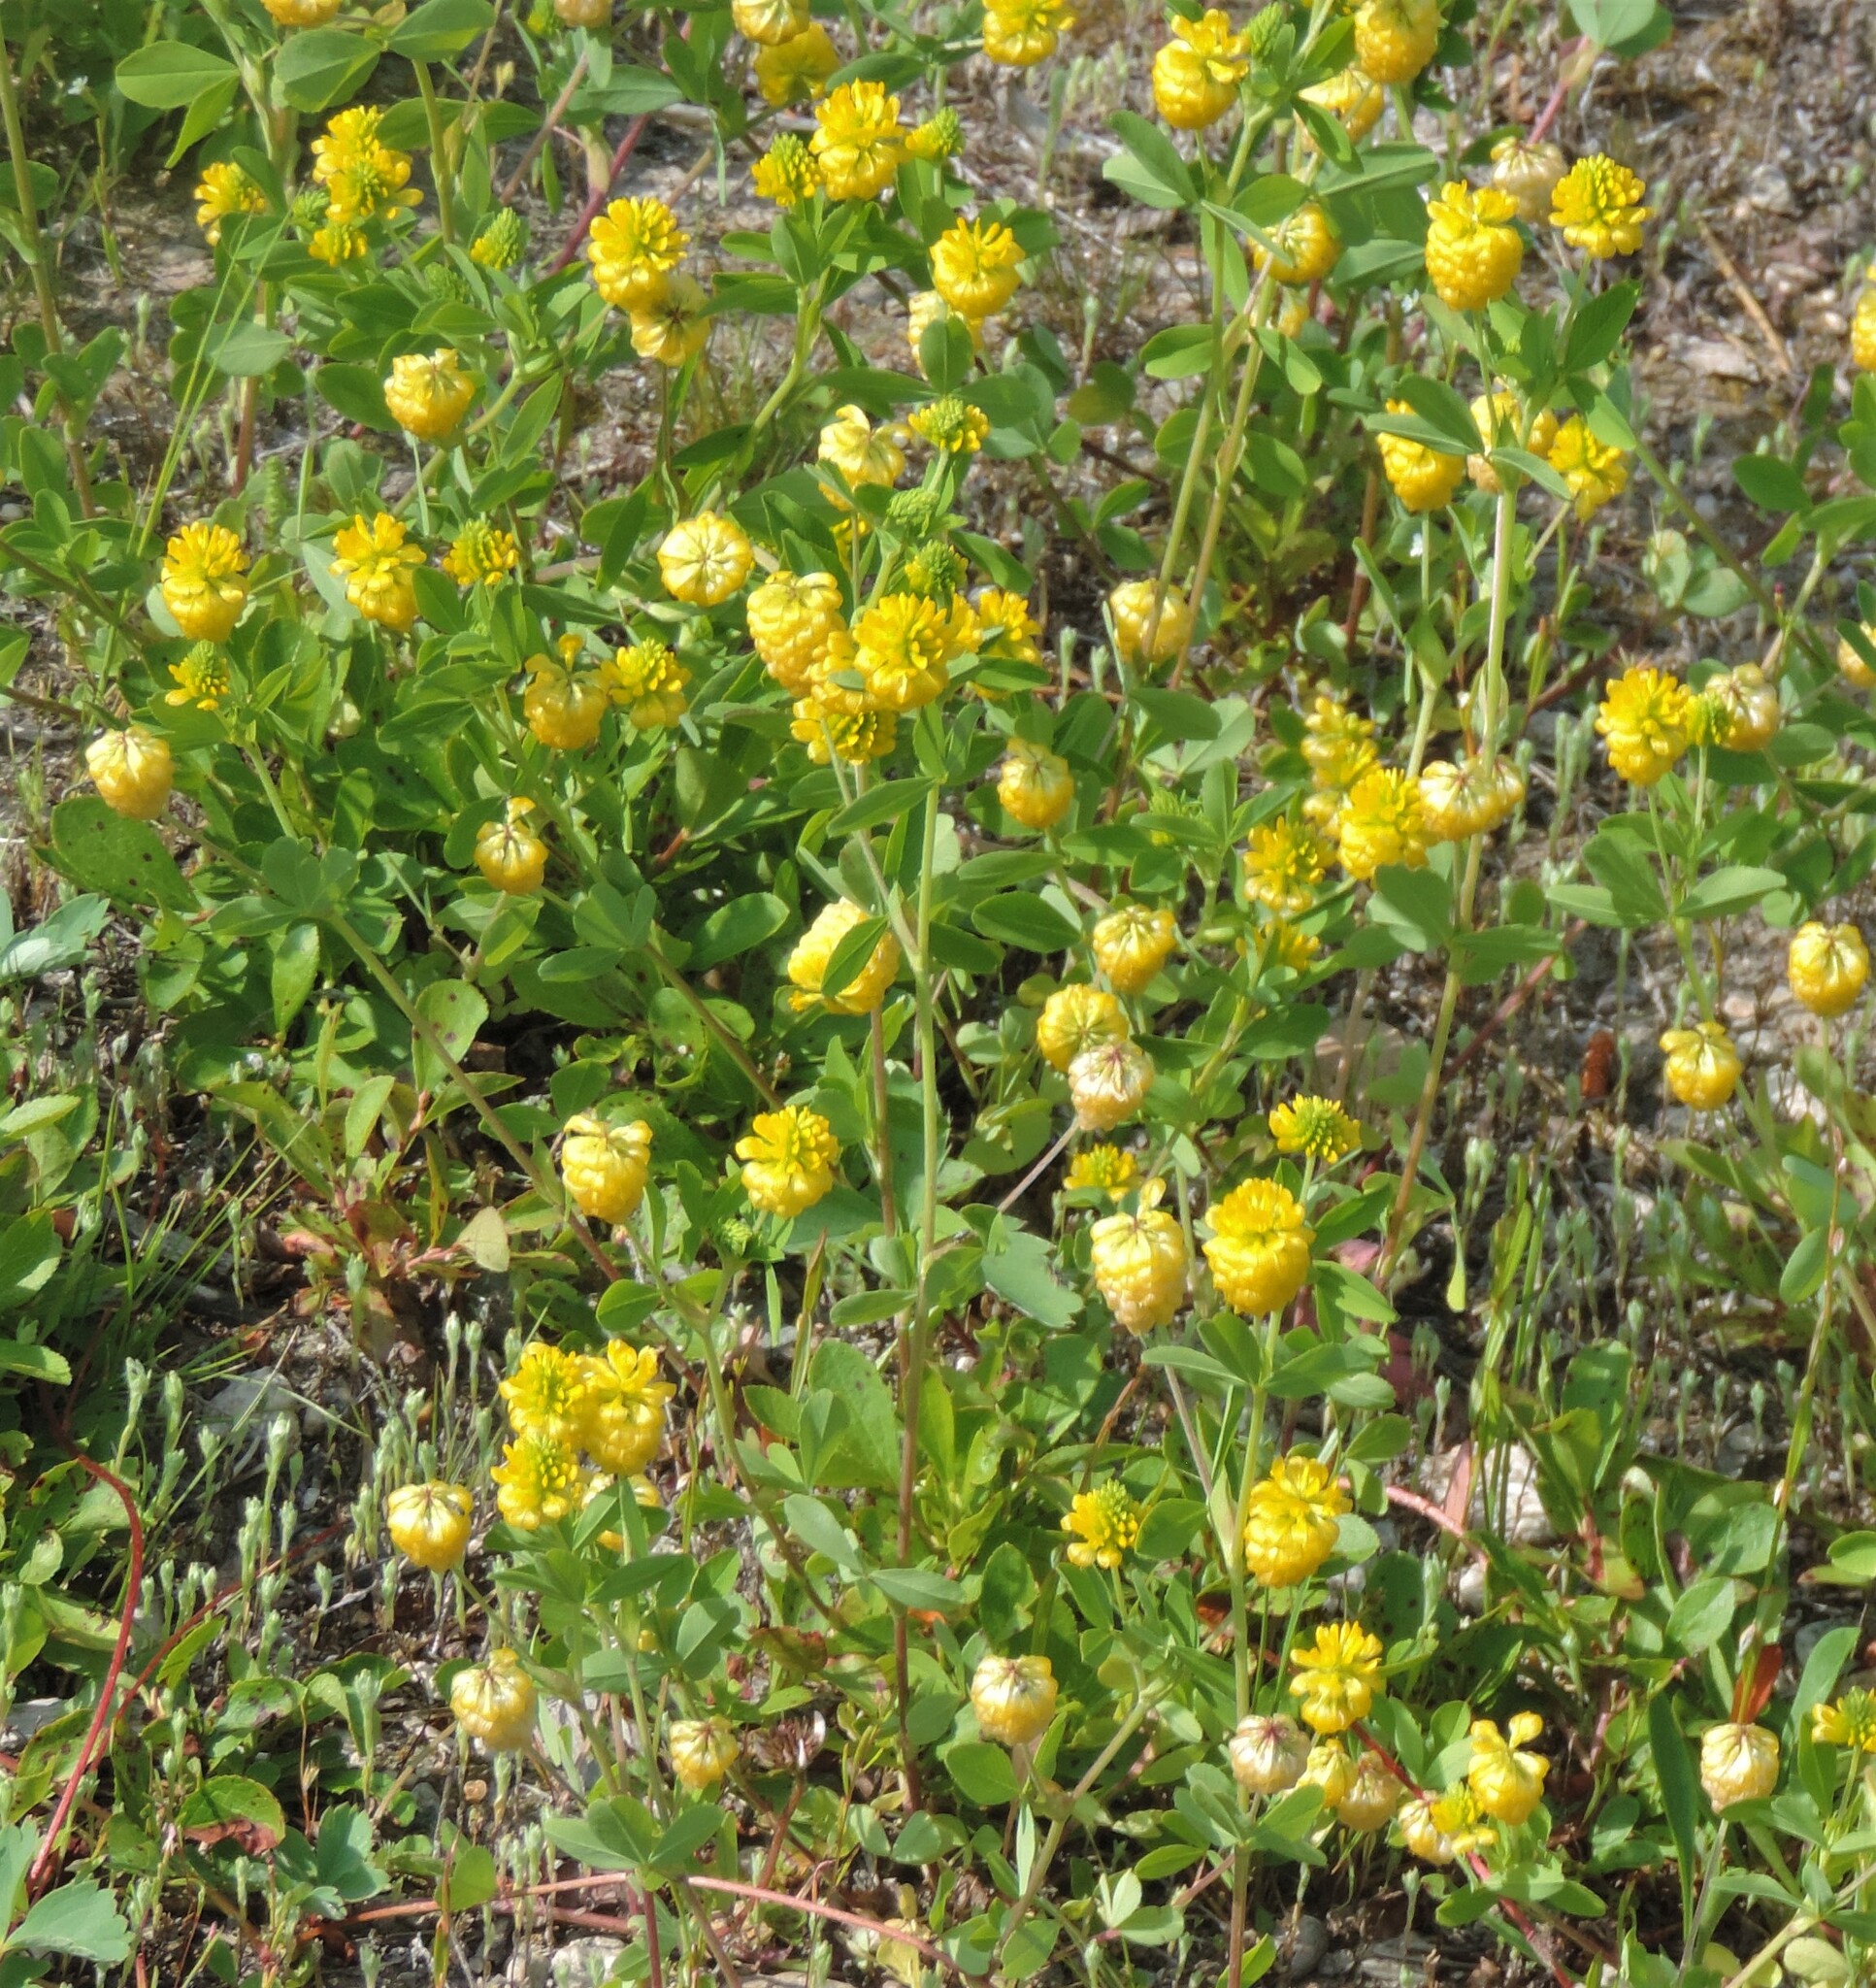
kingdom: Plantae
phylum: Tracheophyta
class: Magnoliopsida
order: Fabales
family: Fabaceae
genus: Trifolium
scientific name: Trifolium aureum
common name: Golden clover
